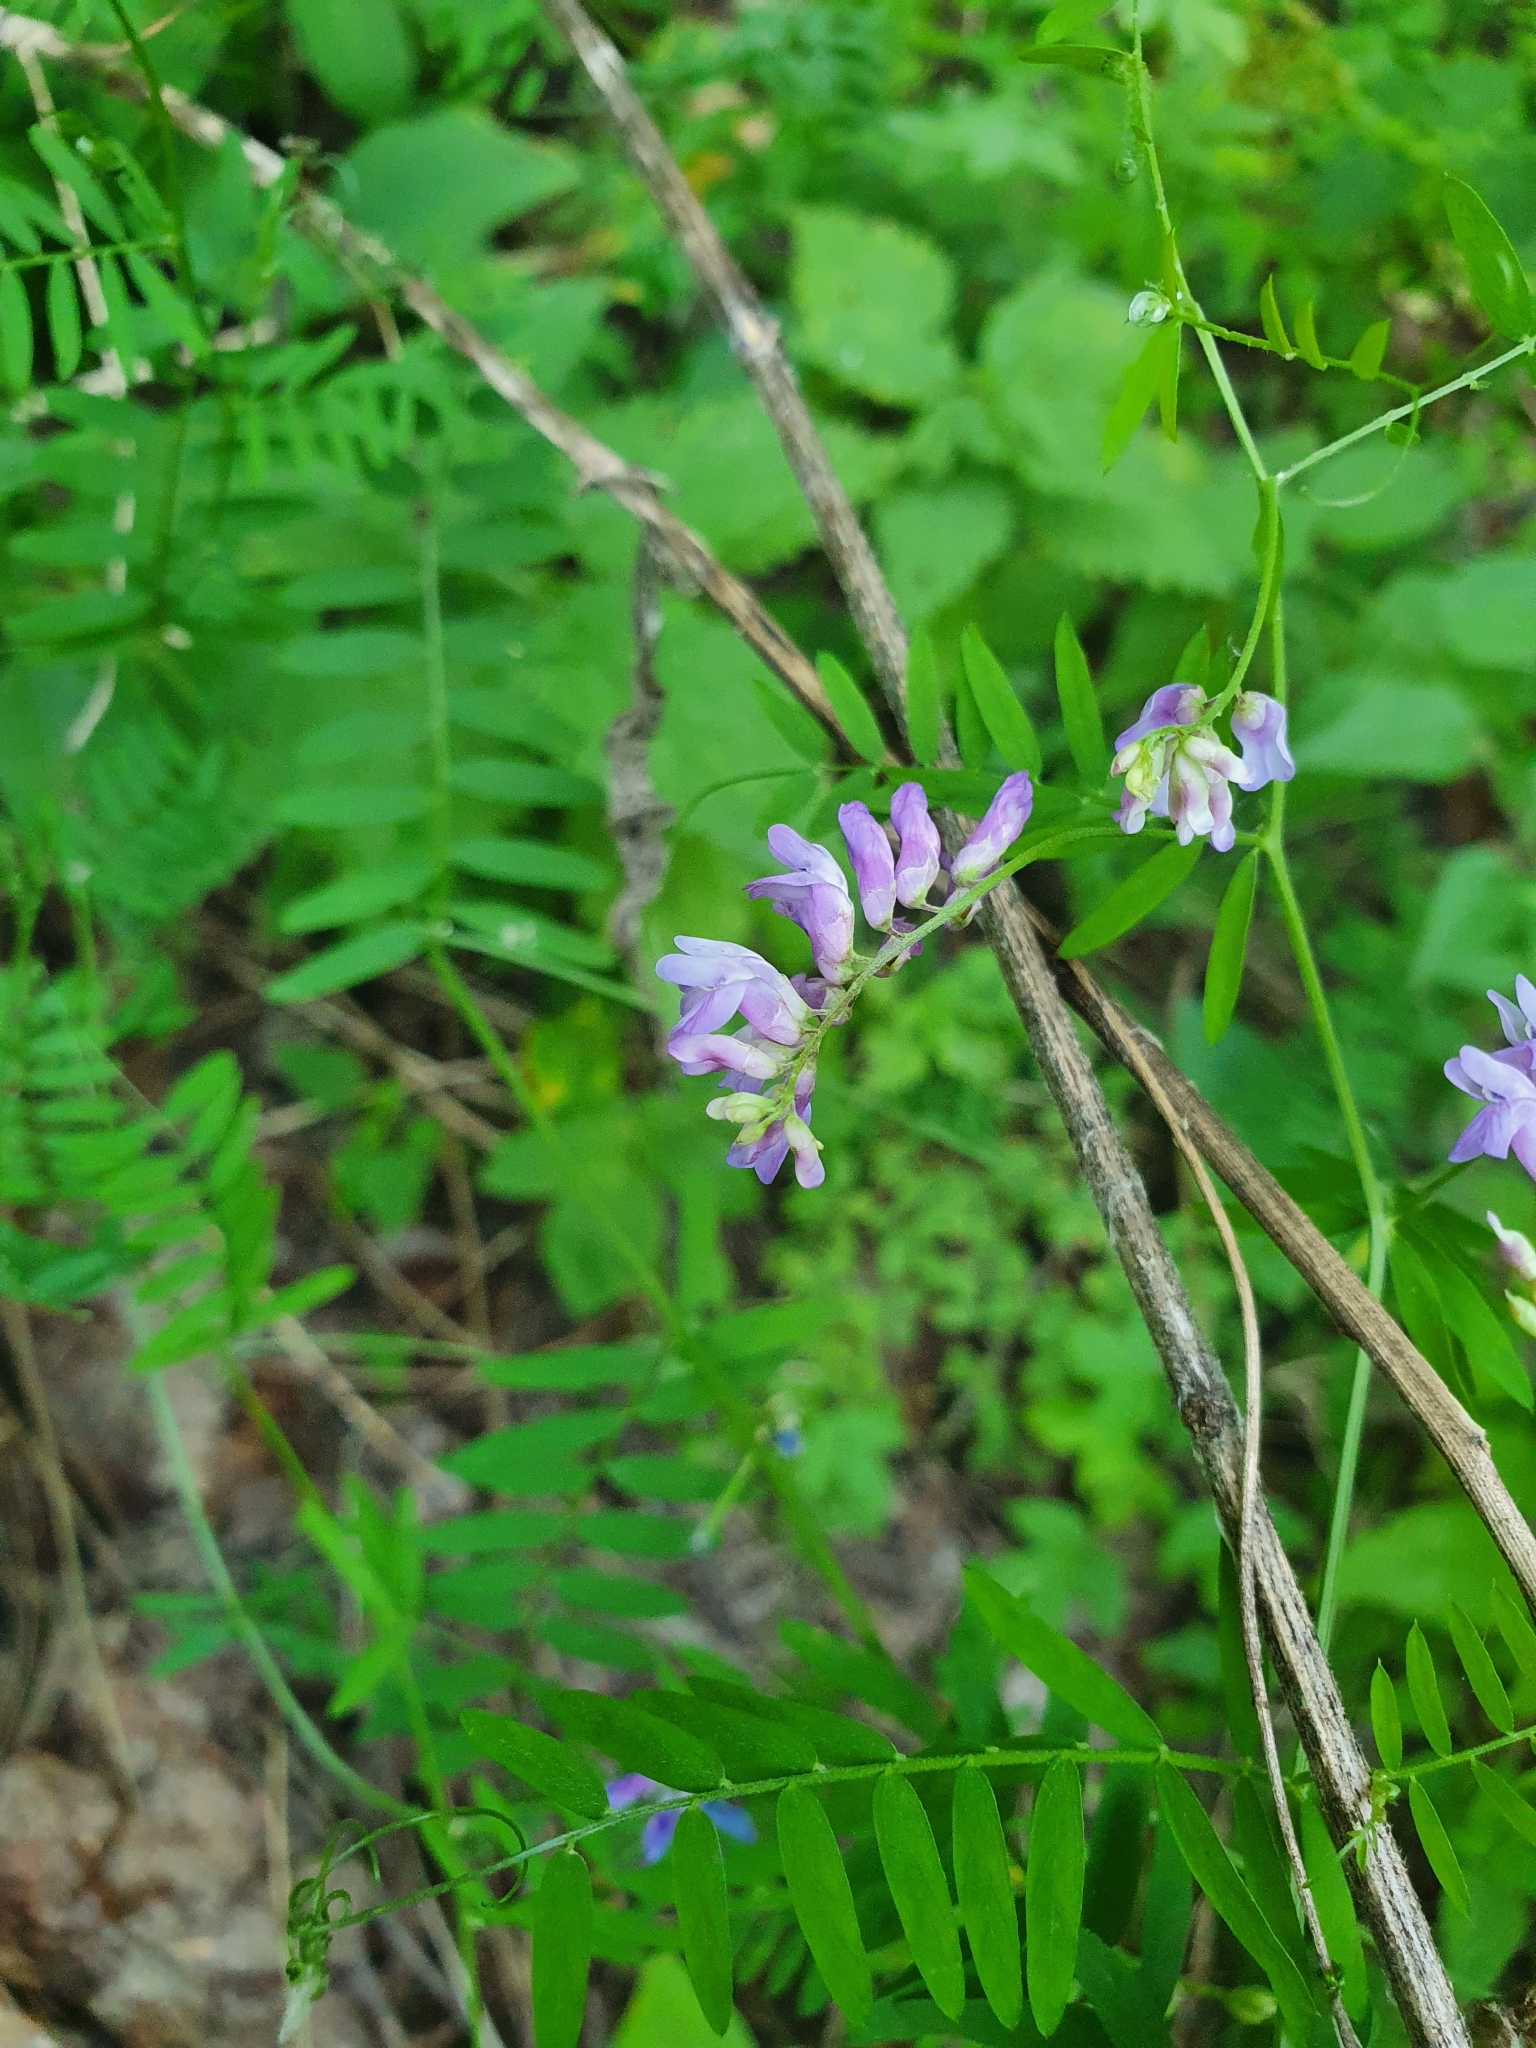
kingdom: Plantae
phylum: Tracheophyta
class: Magnoliopsida
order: Fabales
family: Fabaceae
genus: Vicia
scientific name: Vicia cracca
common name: Bird vetch
